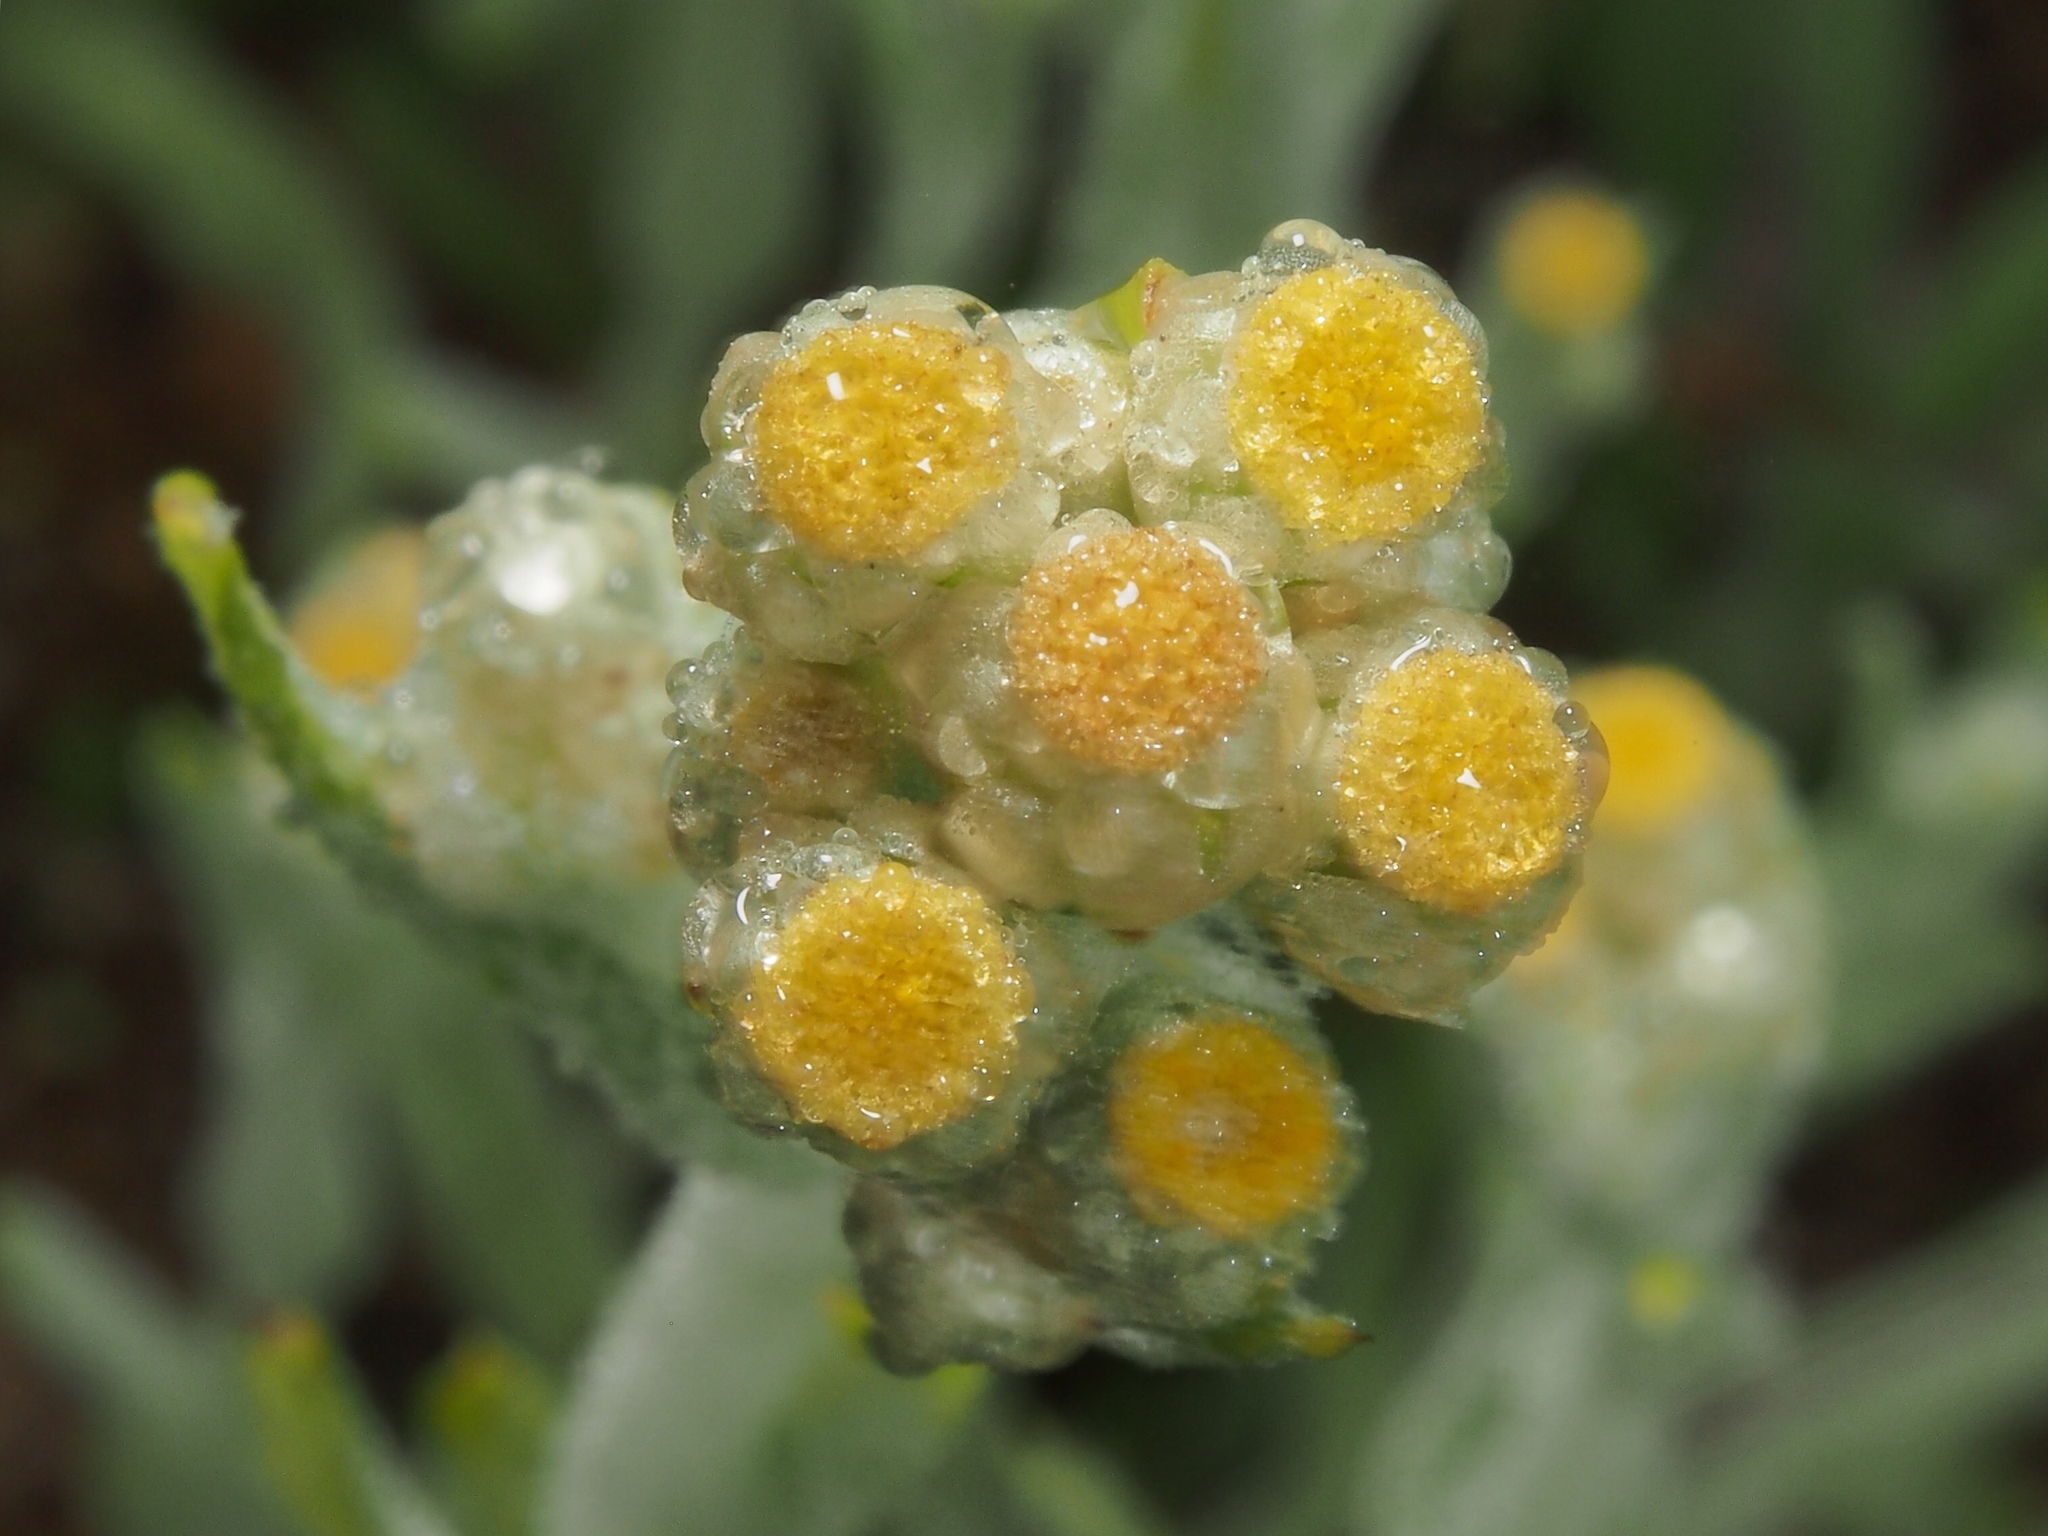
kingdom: Plantae
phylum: Tracheophyta
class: Magnoliopsida
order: Asterales
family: Asteraceae
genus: Pseudognaphalium
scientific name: Pseudognaphalium stramineum
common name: Cotton-batting-plant
